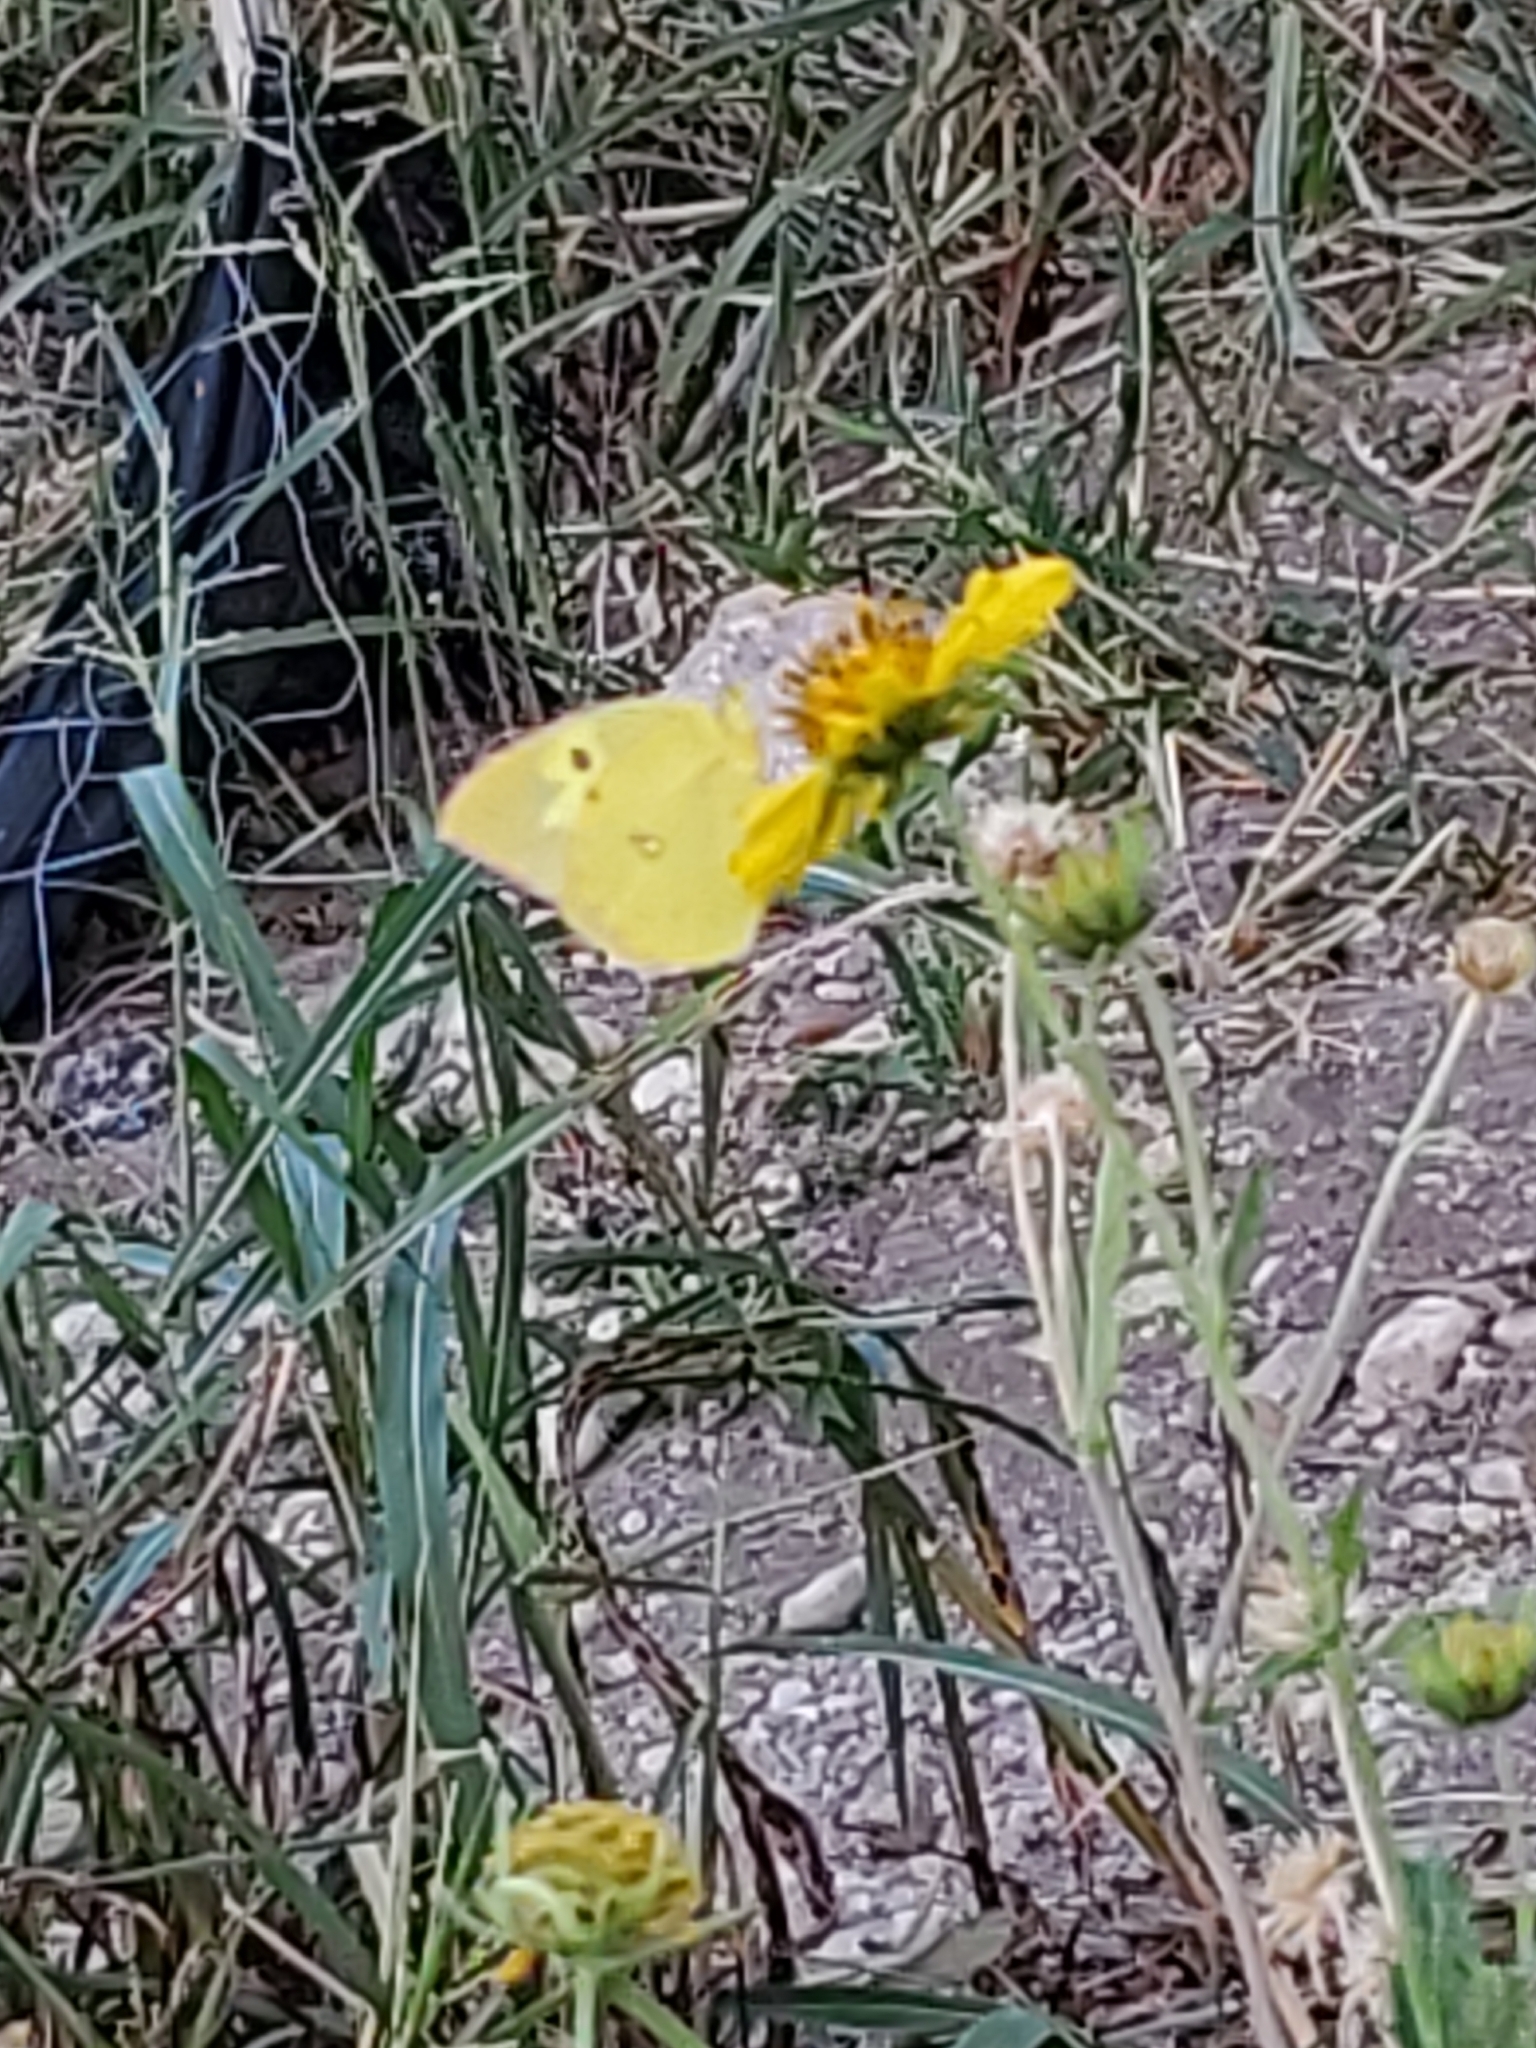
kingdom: Animalia
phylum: Arthropoda
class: Insecta
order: Lepidoptera
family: Pieridae
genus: Zerene
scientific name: Zerene cesonia
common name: Southern dogface
